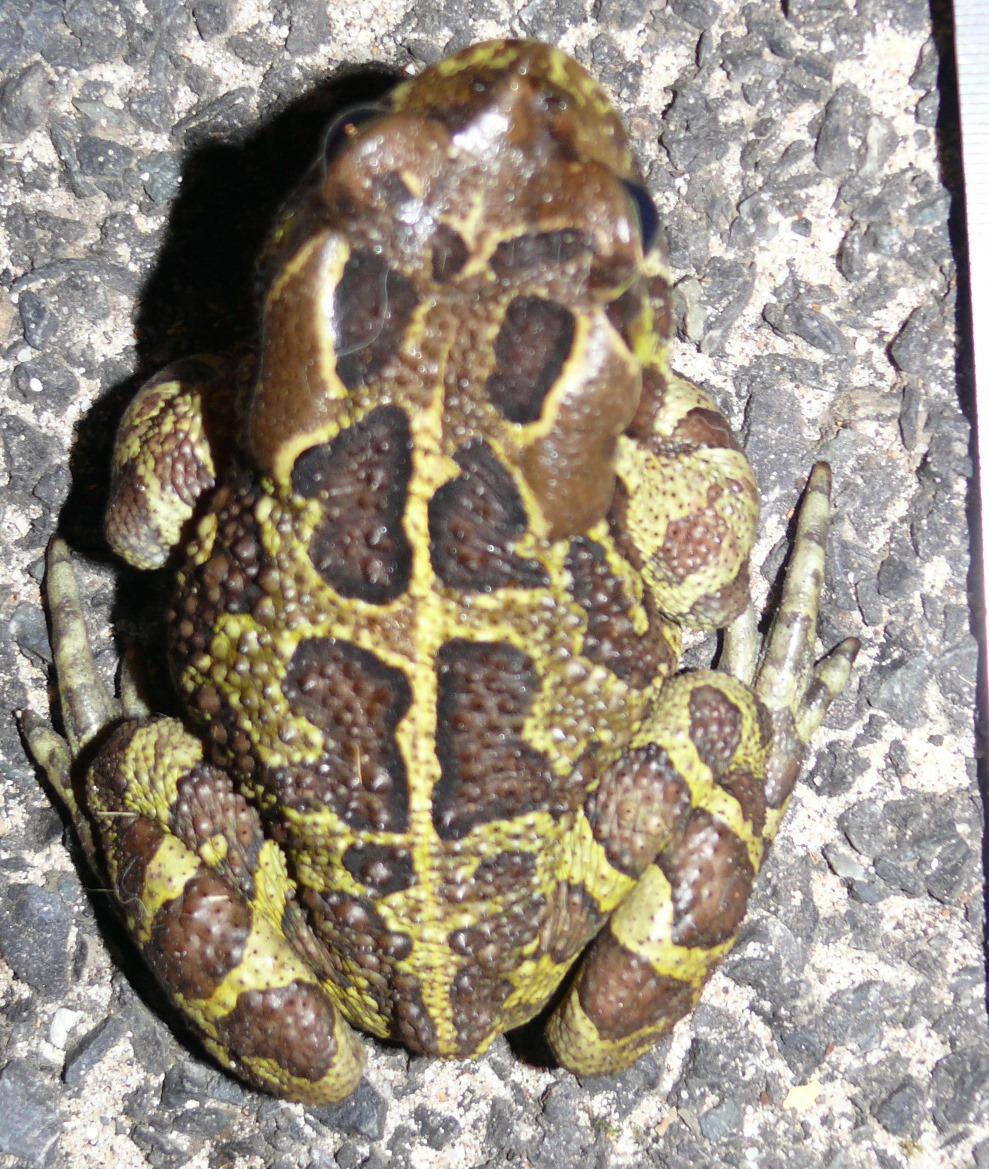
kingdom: Animalia
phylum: Chordata
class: Amphibia
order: Anura
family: Bufonidae
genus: Sclerophrys
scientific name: Sclerophrys pantherina
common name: Panther toad
